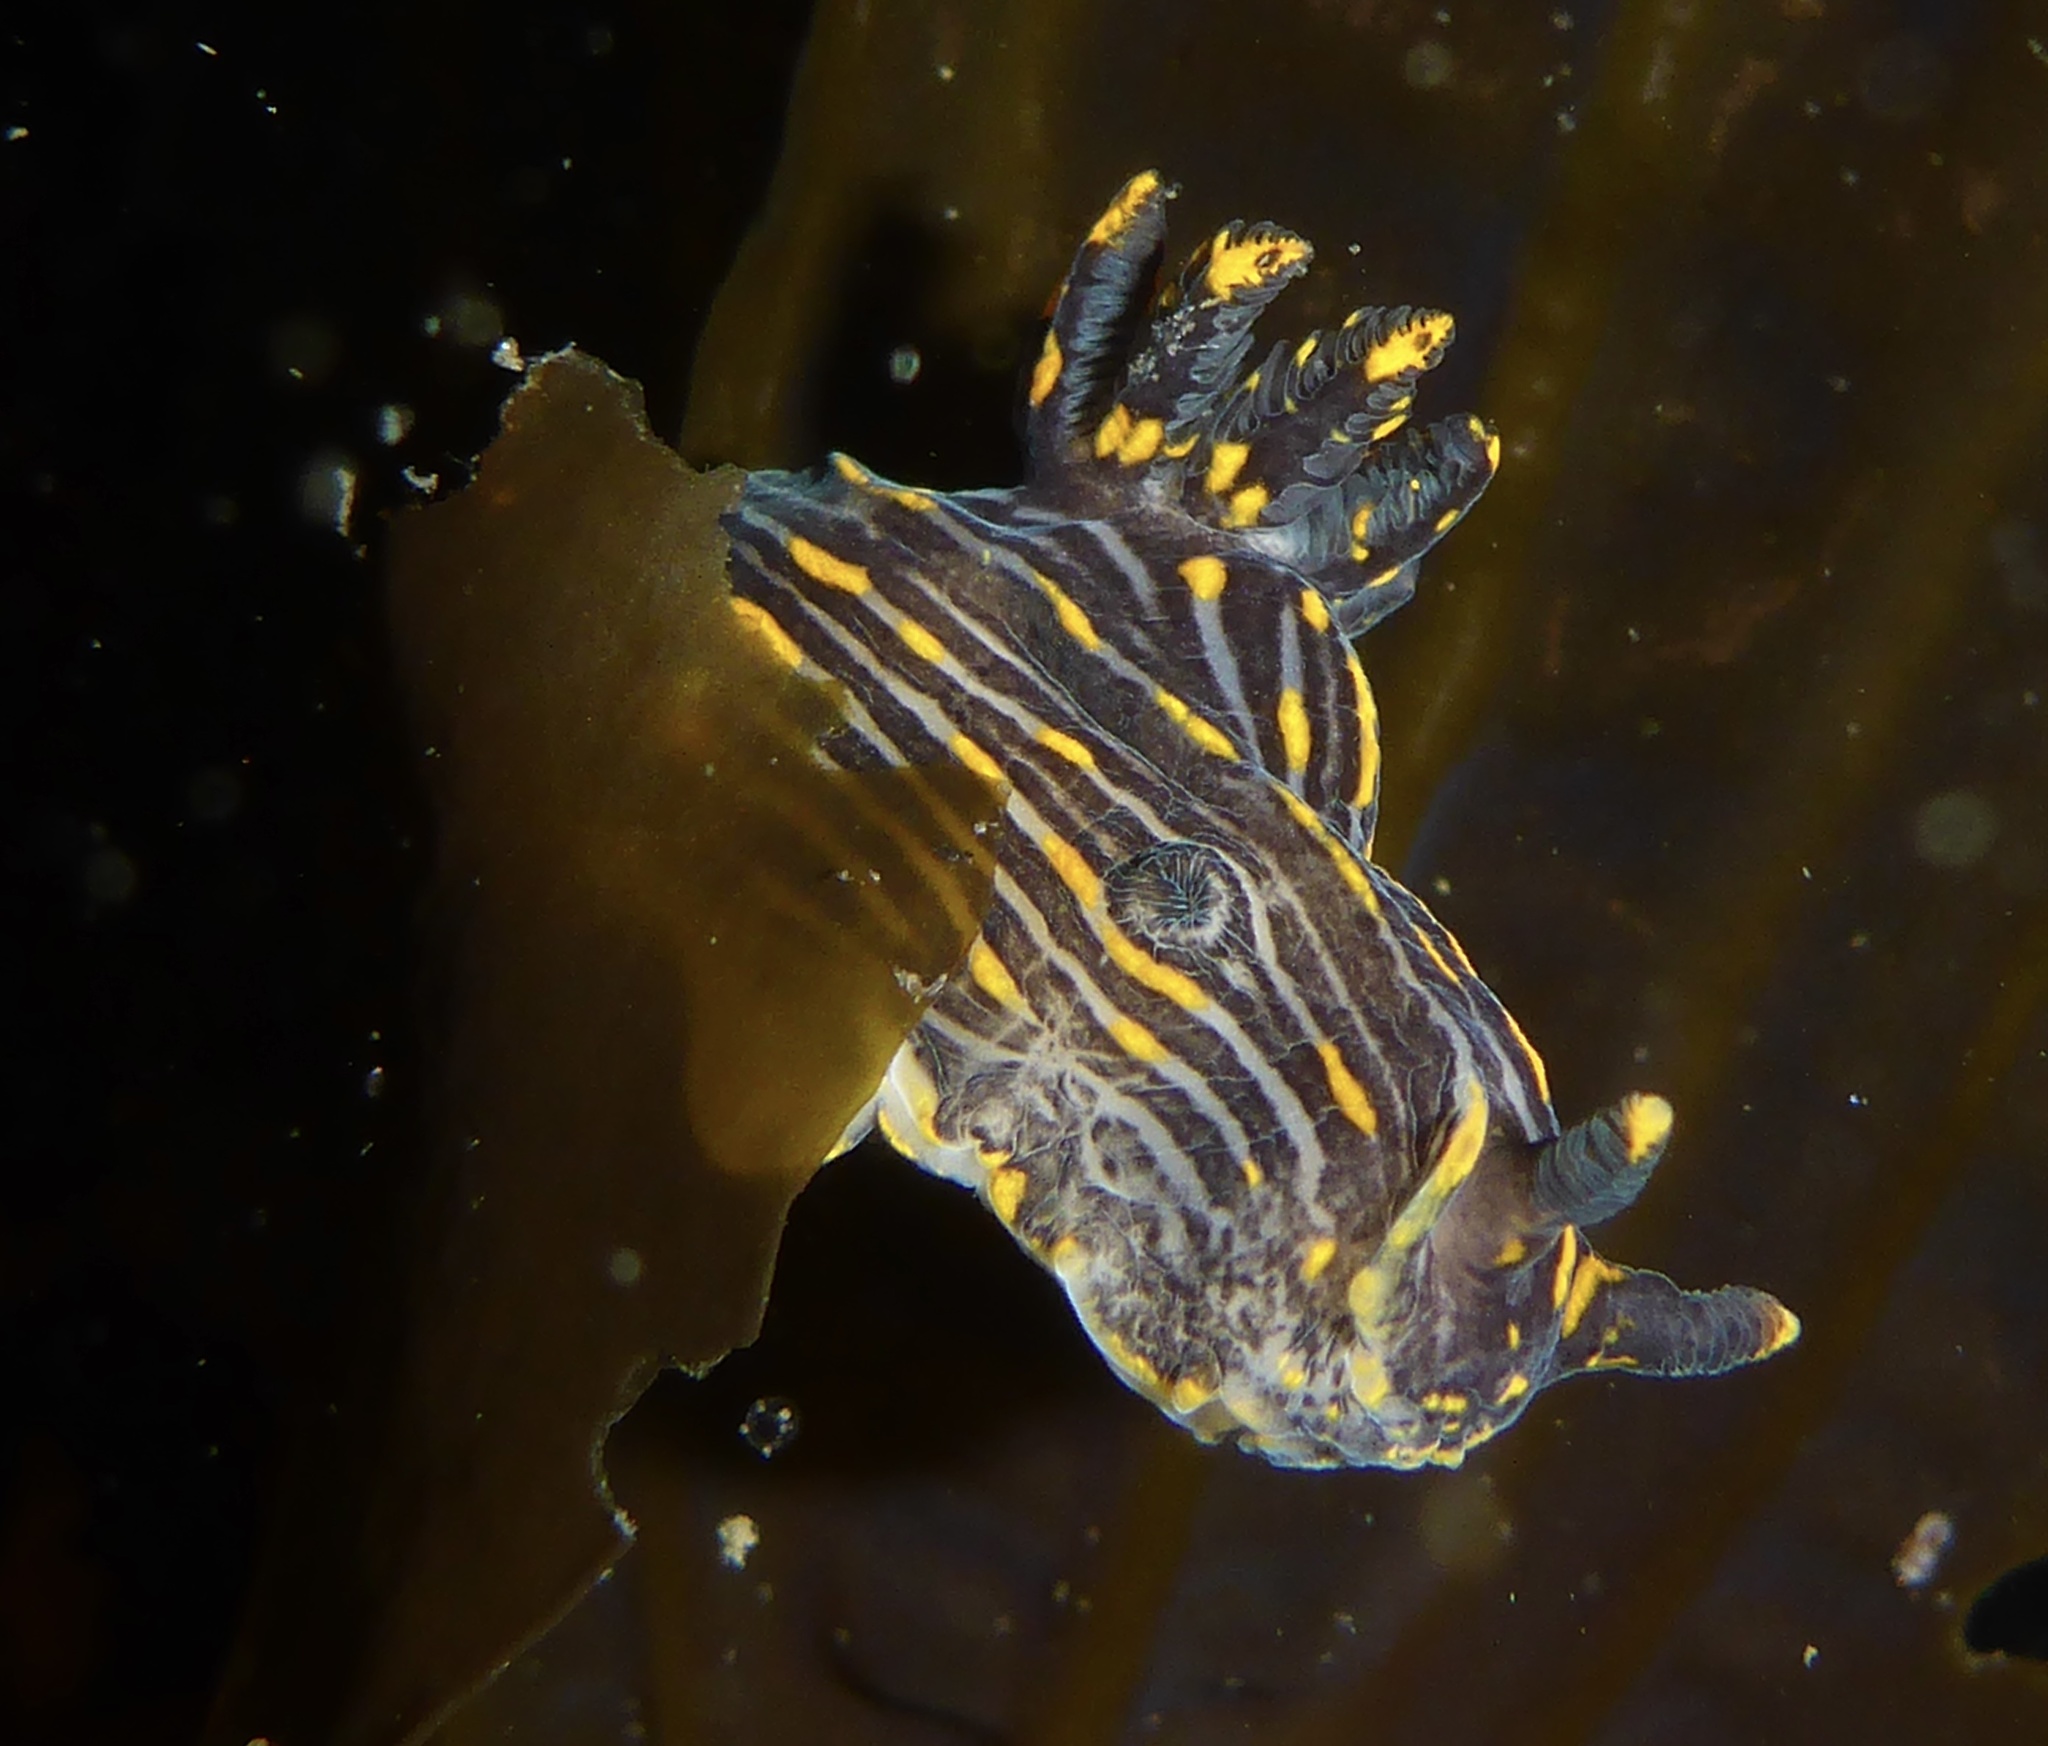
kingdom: Animalia
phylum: Mollusca
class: Gastropoda
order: Nudibranchia
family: Polyceridae
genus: Polycera
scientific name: Polycera atra
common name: Orange-spike polycera
